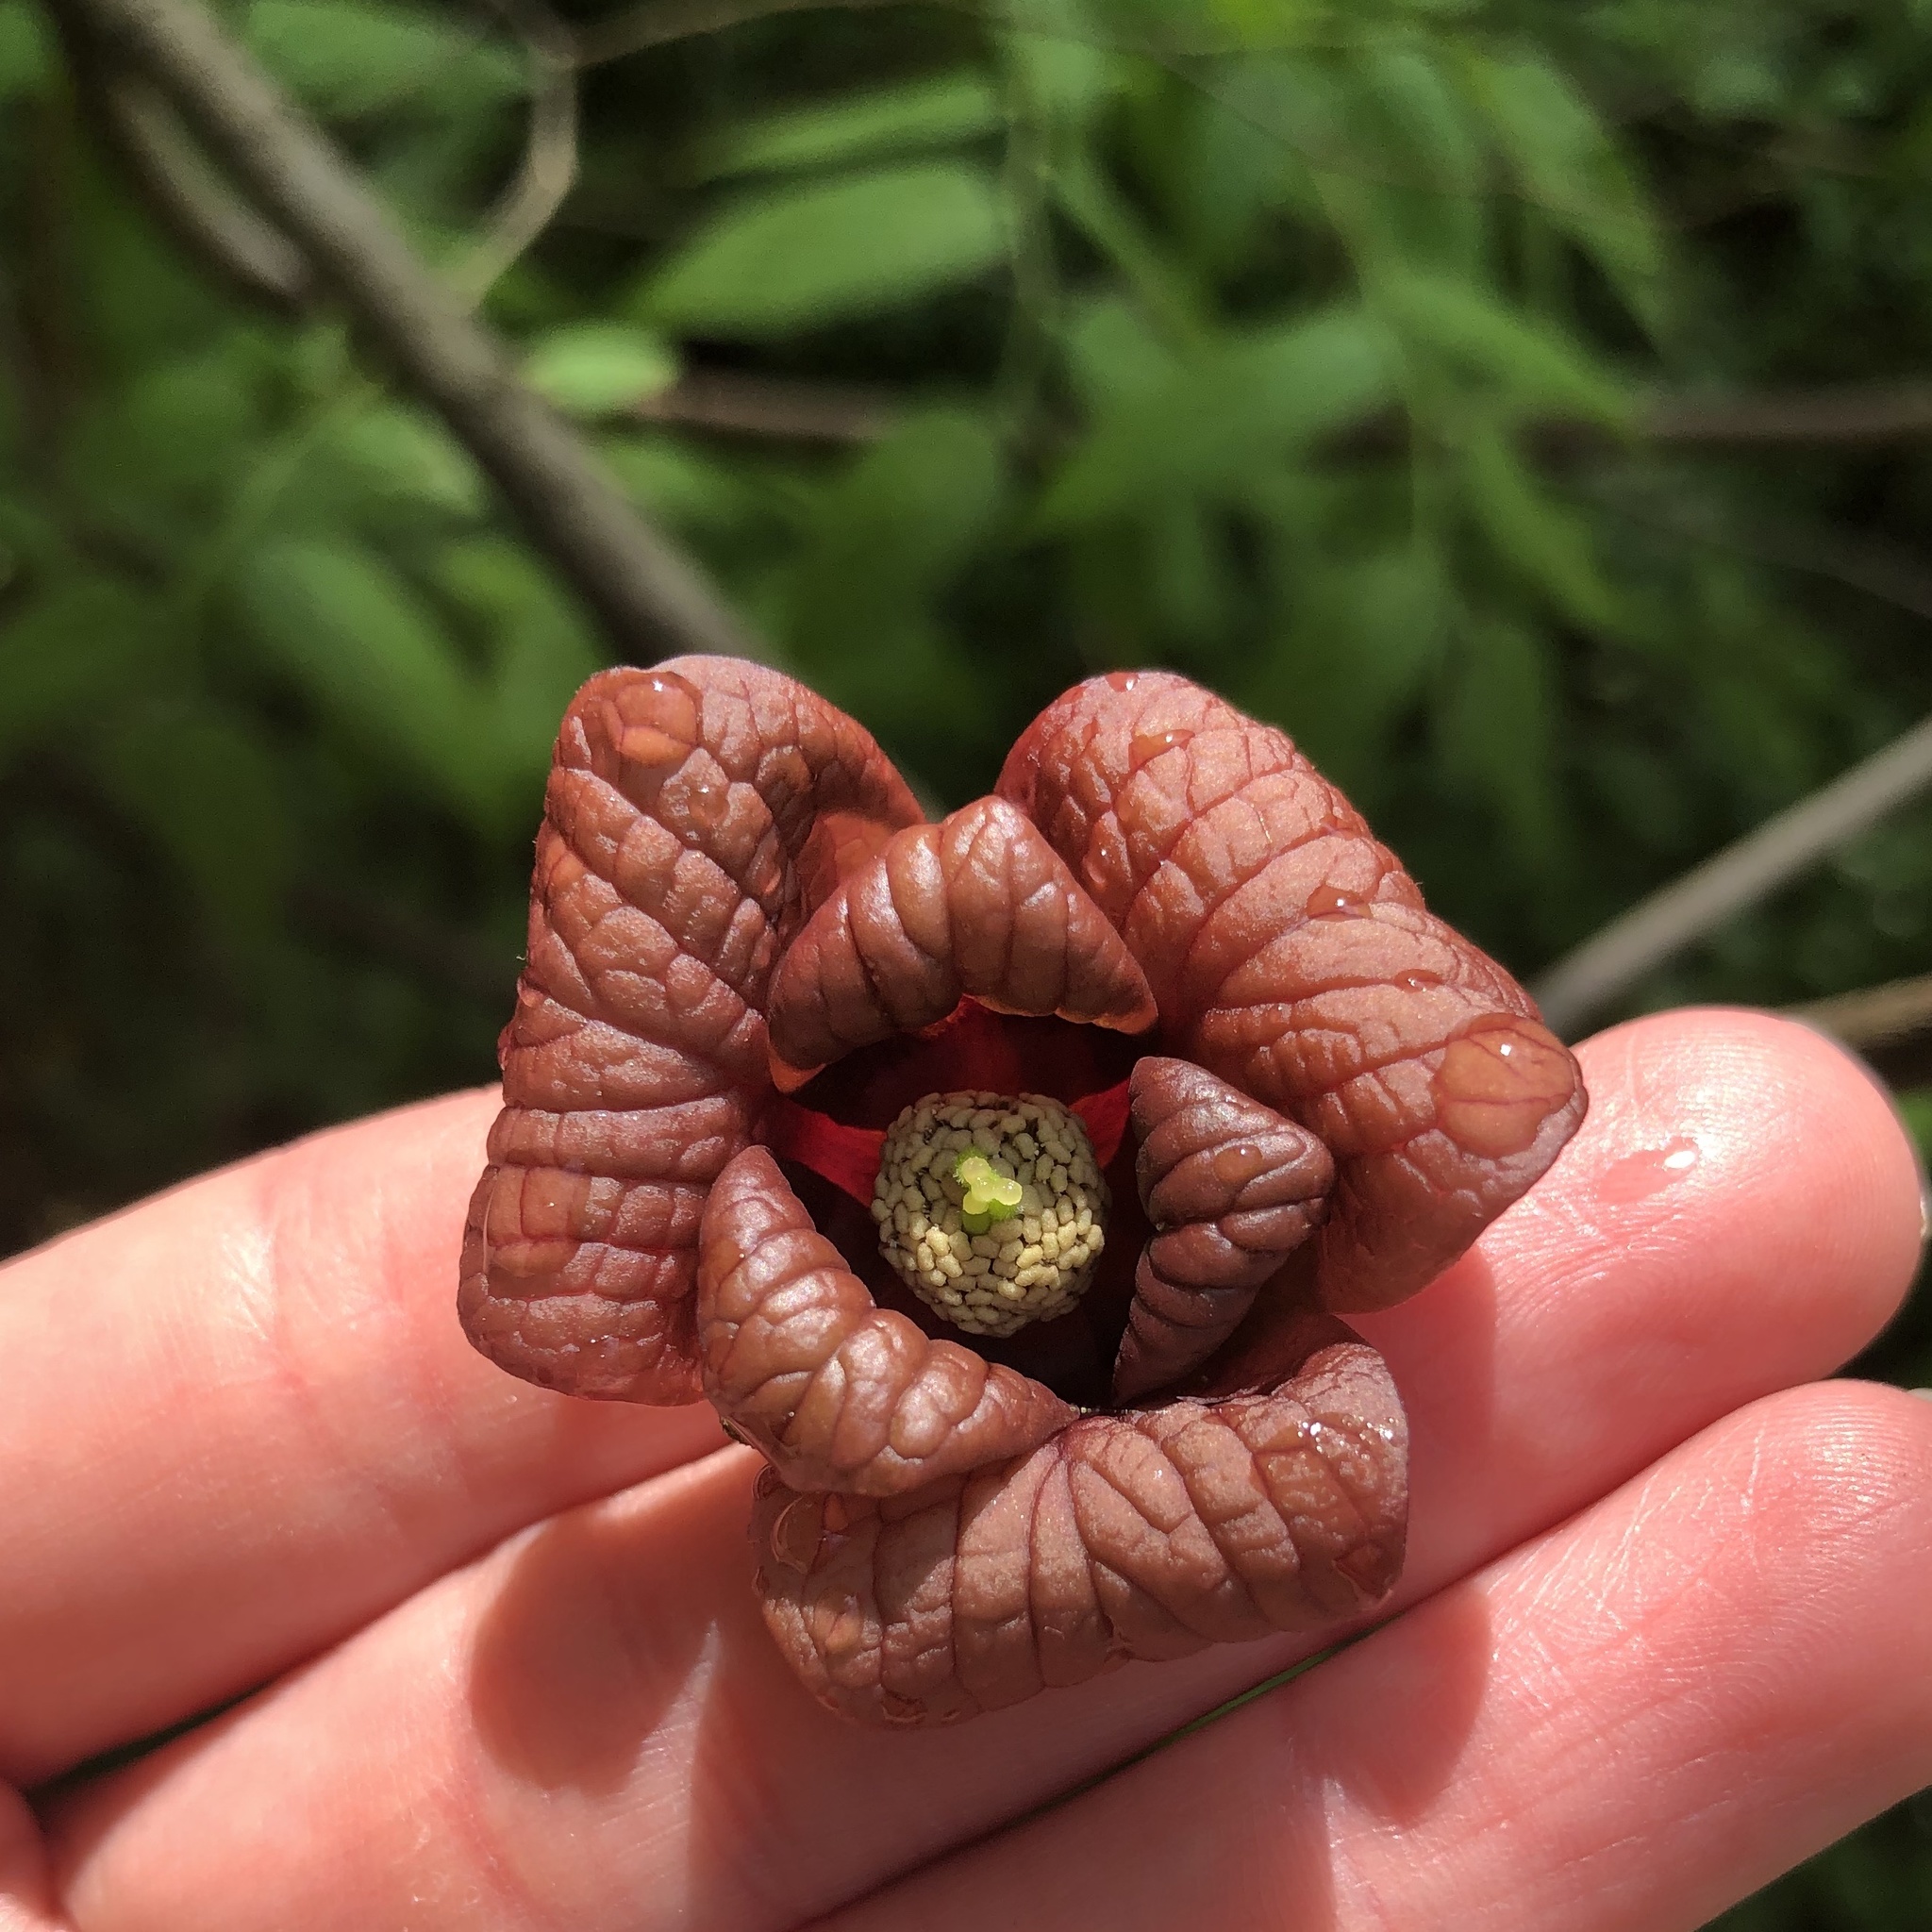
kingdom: Plantae
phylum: Tracheophyta
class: Magnoliopsida
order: Magnoliales
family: Annonaceae
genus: Asimina
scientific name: Asimina triloba
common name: Dog-banana
